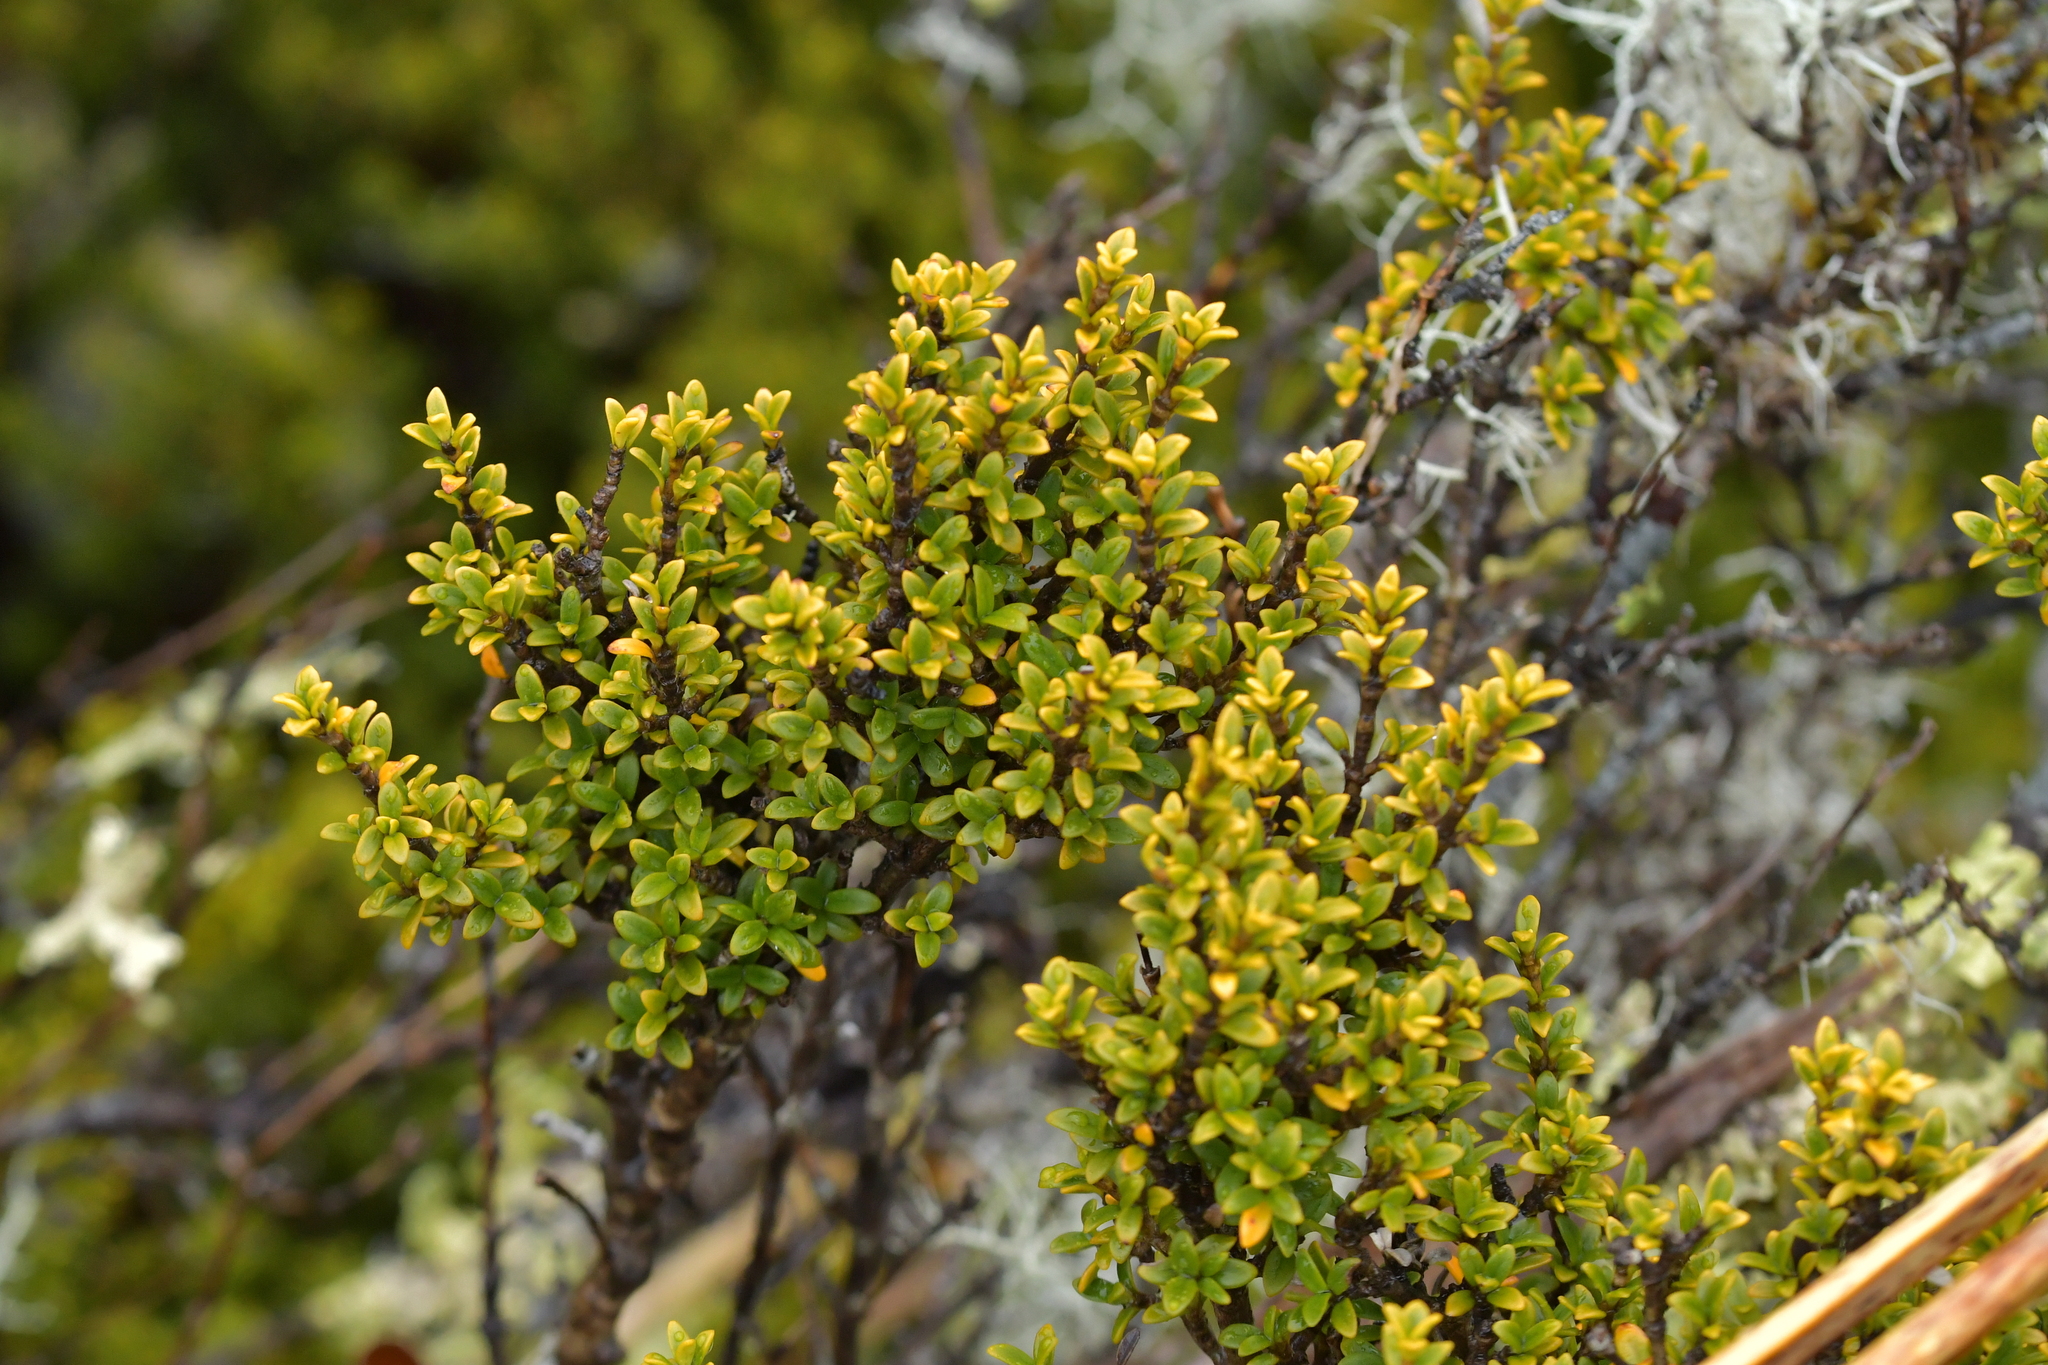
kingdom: Plantae
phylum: Tracheophyta
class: Magnoliopsida
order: Gentianales
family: Rubiaceae
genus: Coprosma
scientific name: Coprosma pseudocuneata
